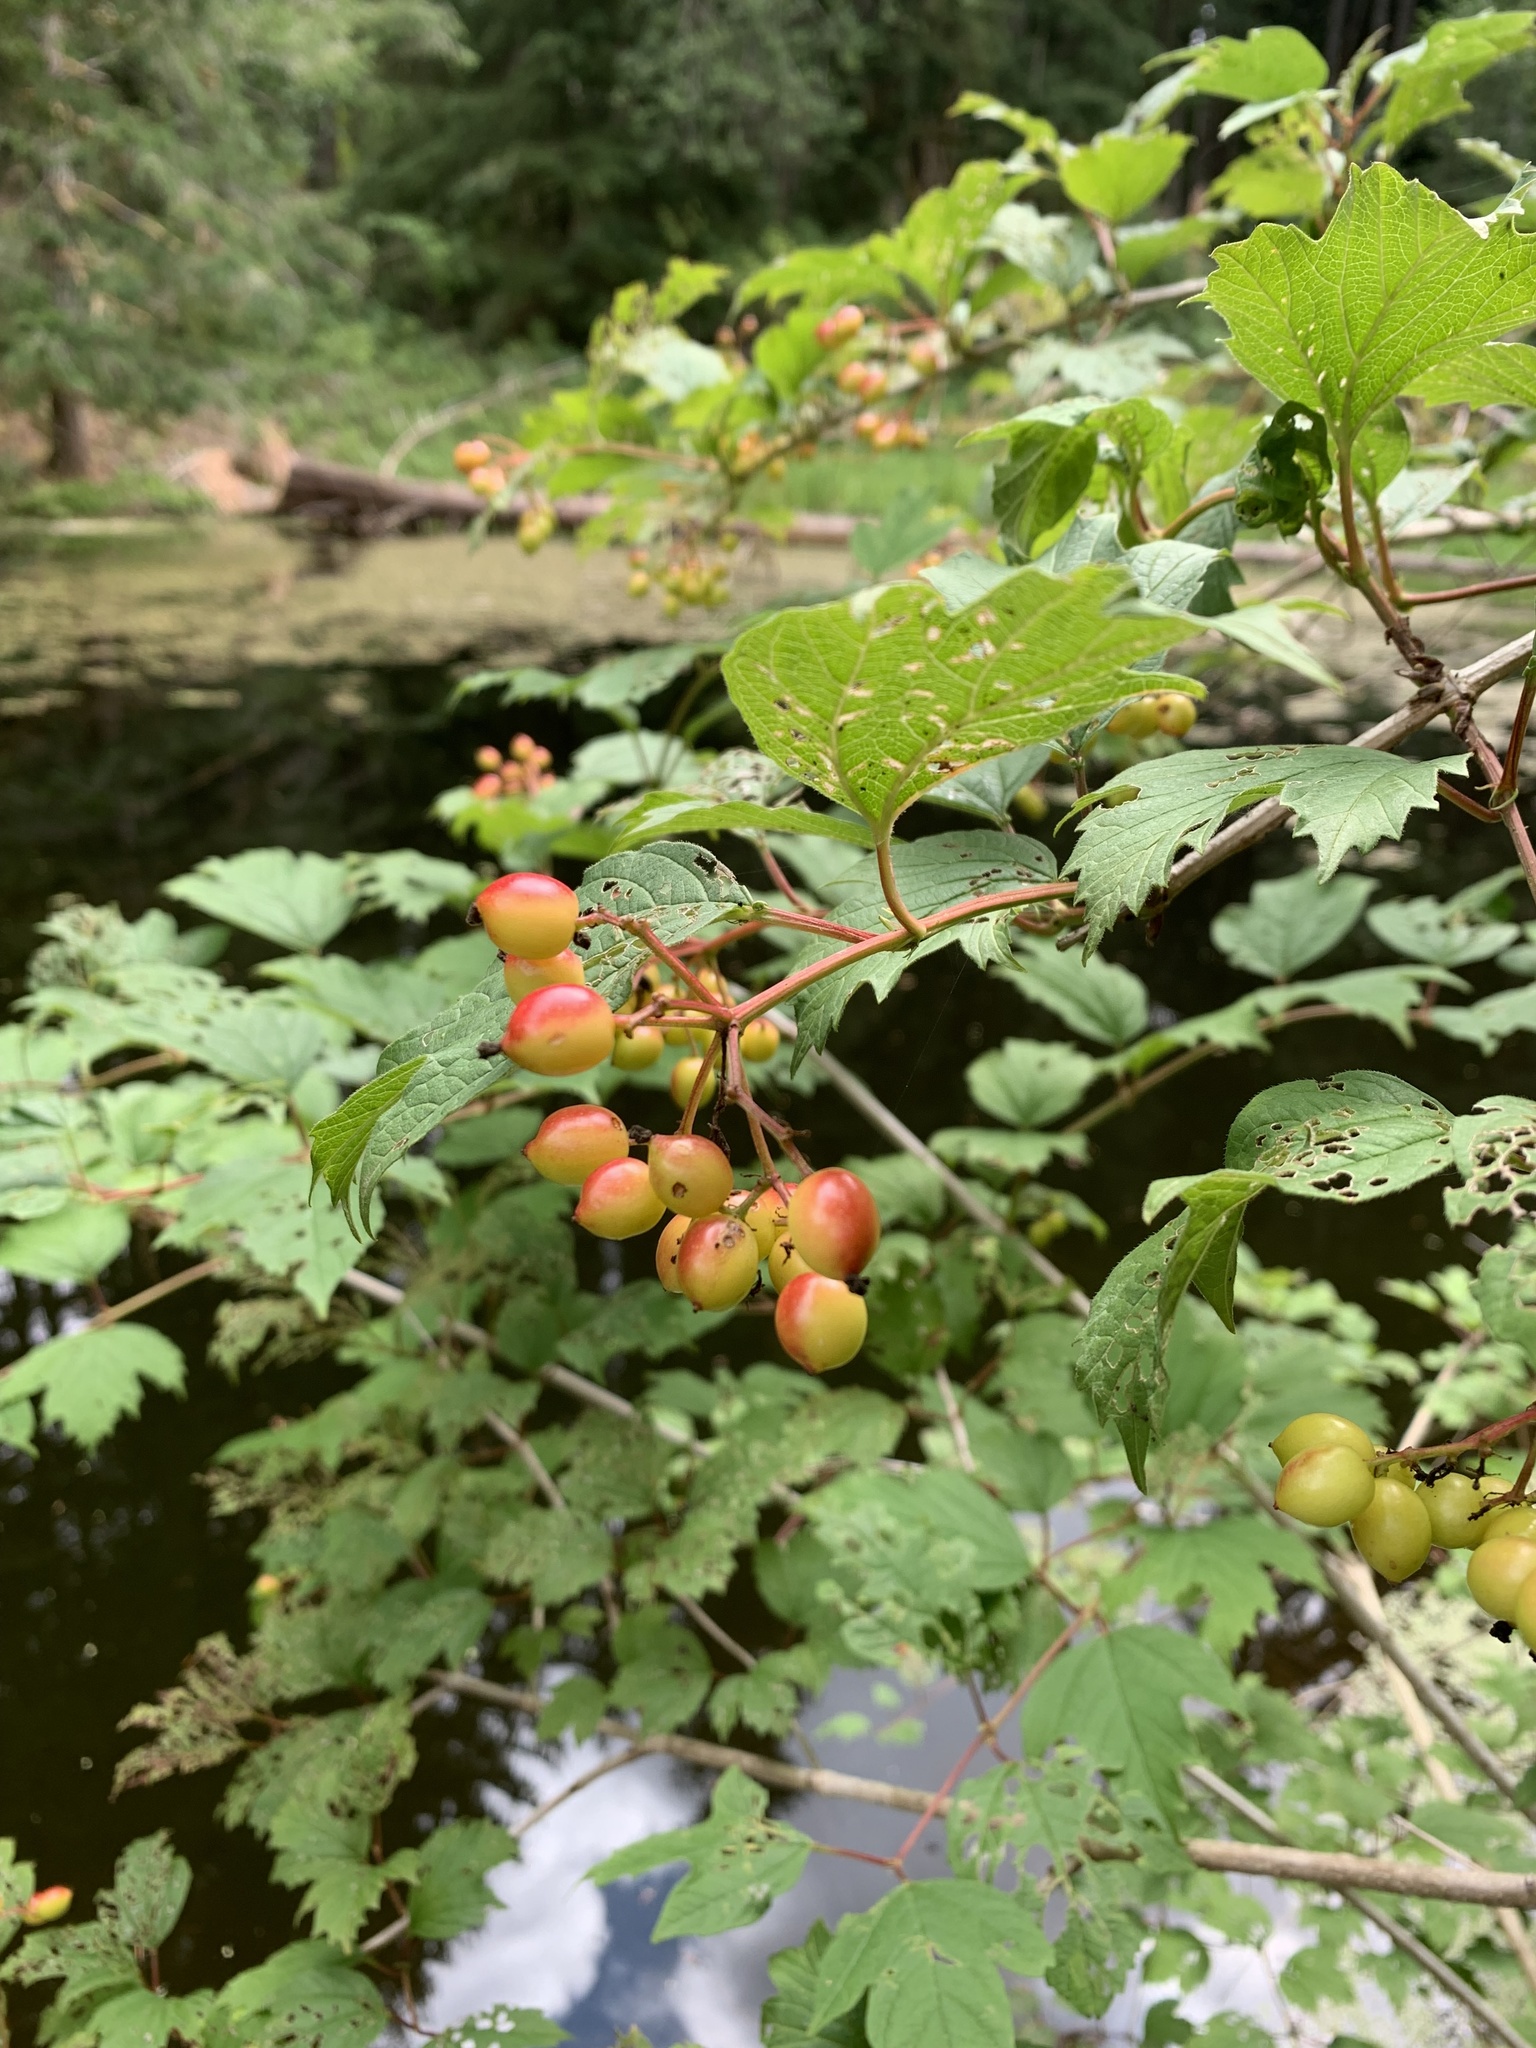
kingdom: Plantae
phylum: Tracheophyta
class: Magnoliopsida
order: Dipsacales
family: Viburnaceae
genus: Viburnum
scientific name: Viburnum opulus
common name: Guelder-rose
